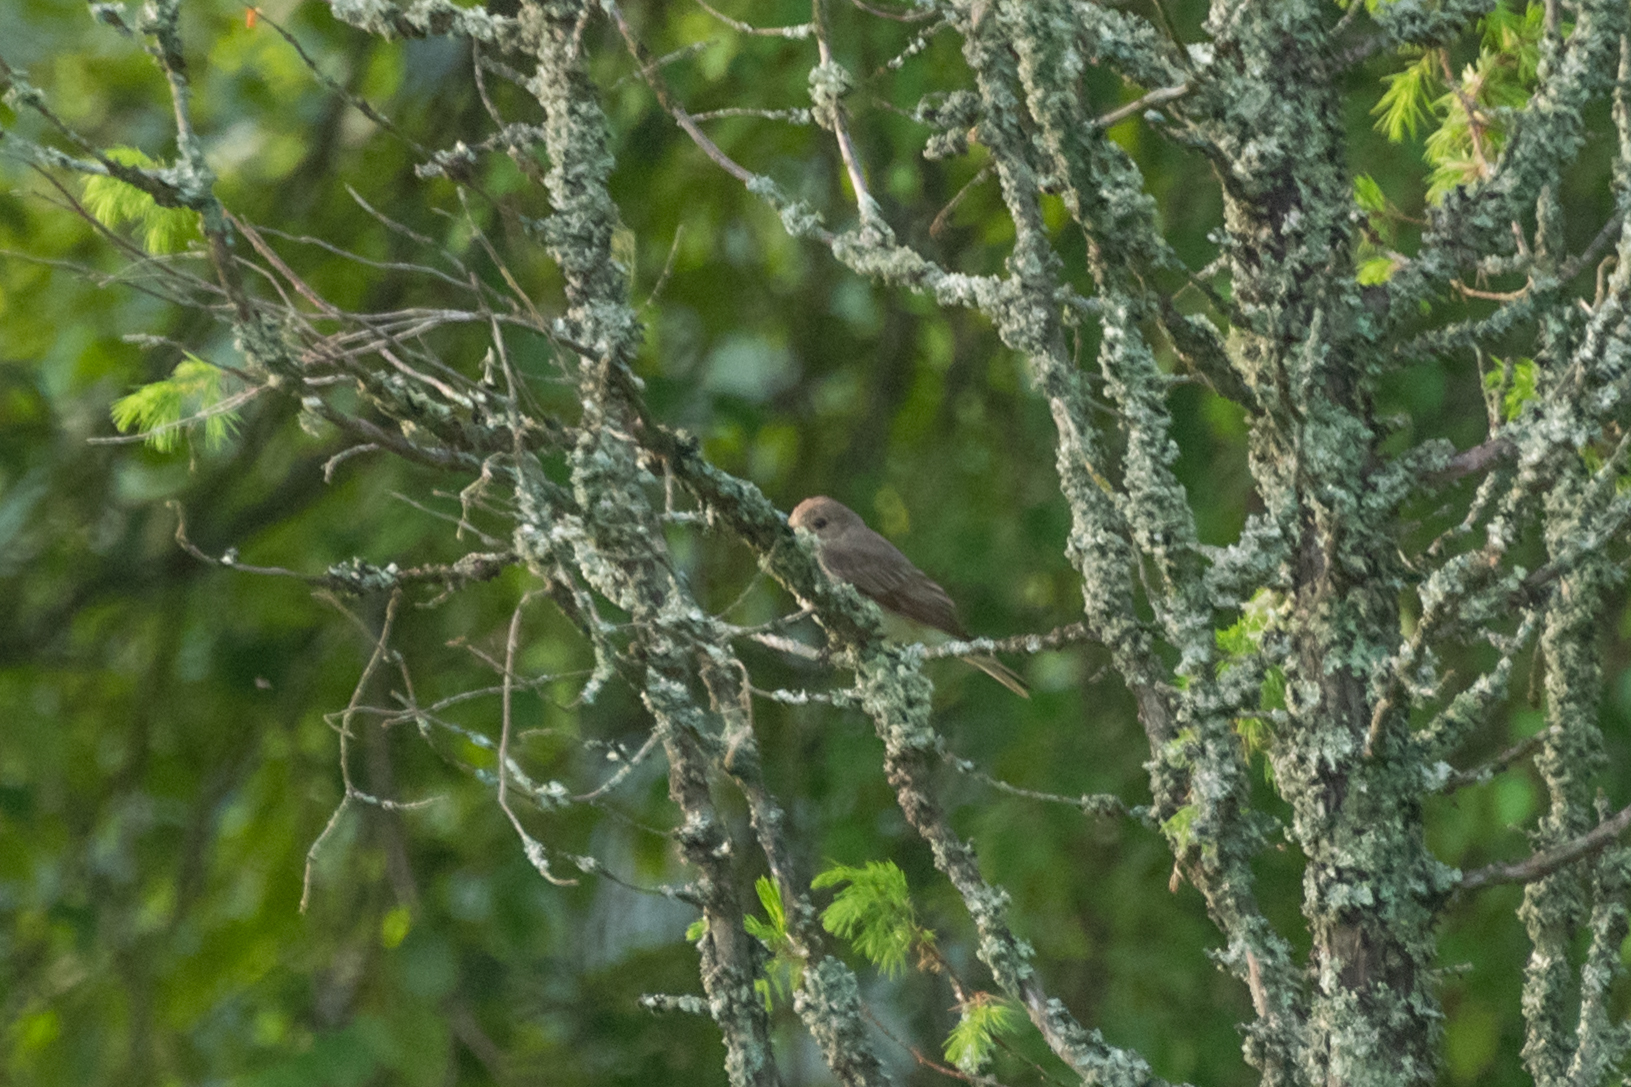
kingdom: Animalia
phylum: Chordata
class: Aves
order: Passeriformes
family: Muscicapidae
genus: Muscicapa
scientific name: Muscicapa striata
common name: Spotted flycatcher
